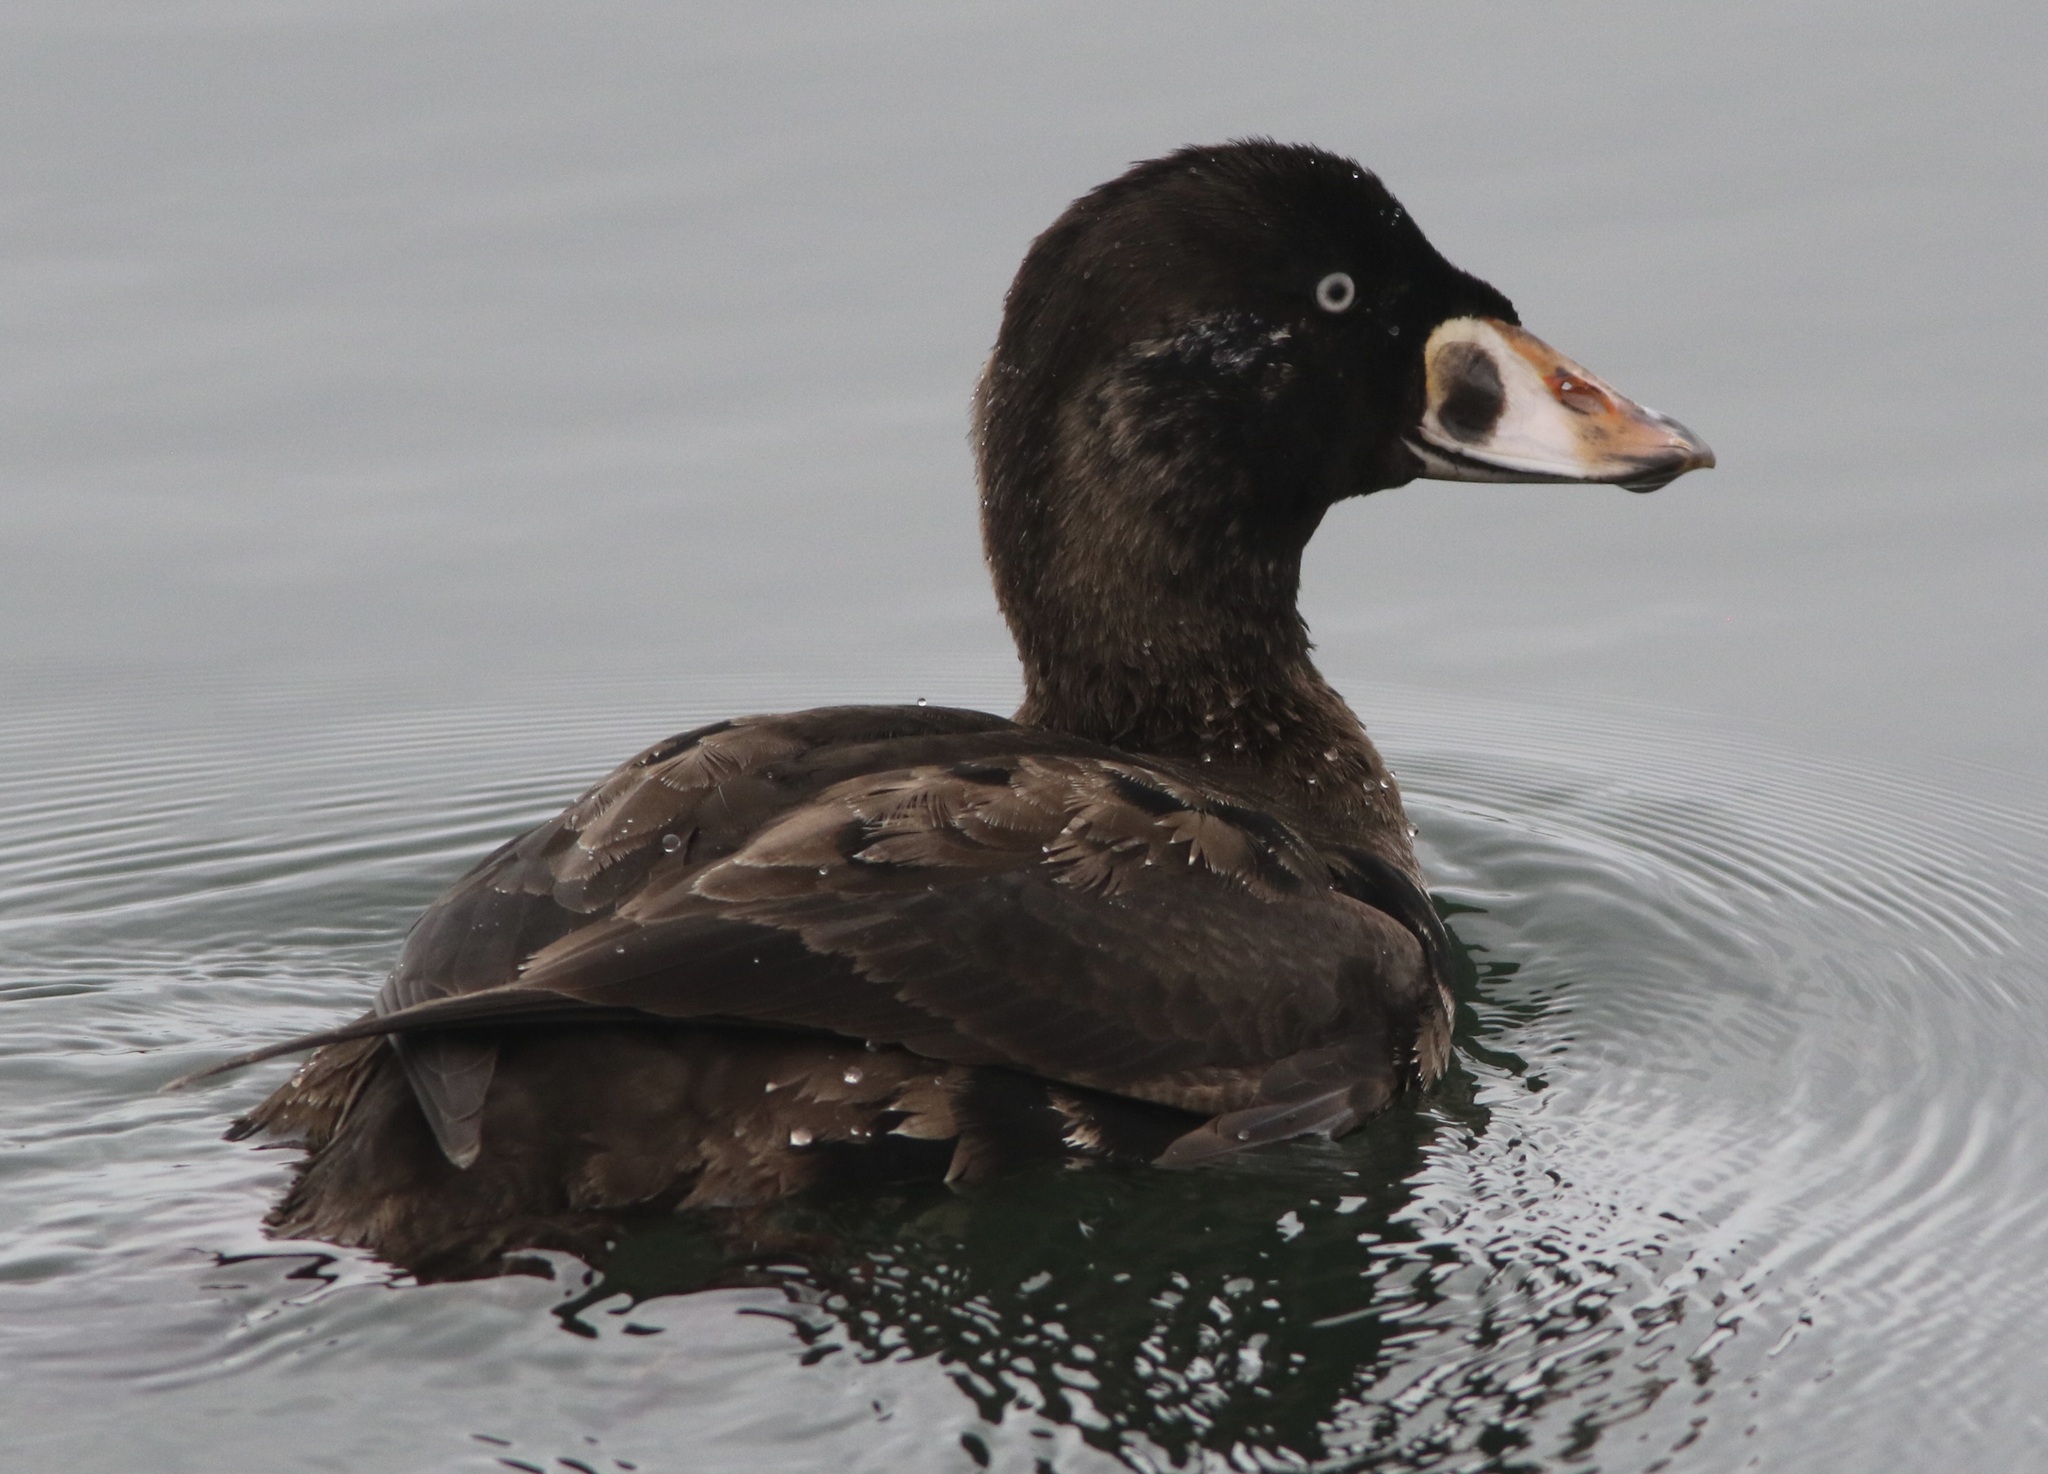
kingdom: Animalia
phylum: Chordata
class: Aves
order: Anseriformes
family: Anatidae
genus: Melanitta
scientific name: Melanitta perspicillata
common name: Surf scoter
